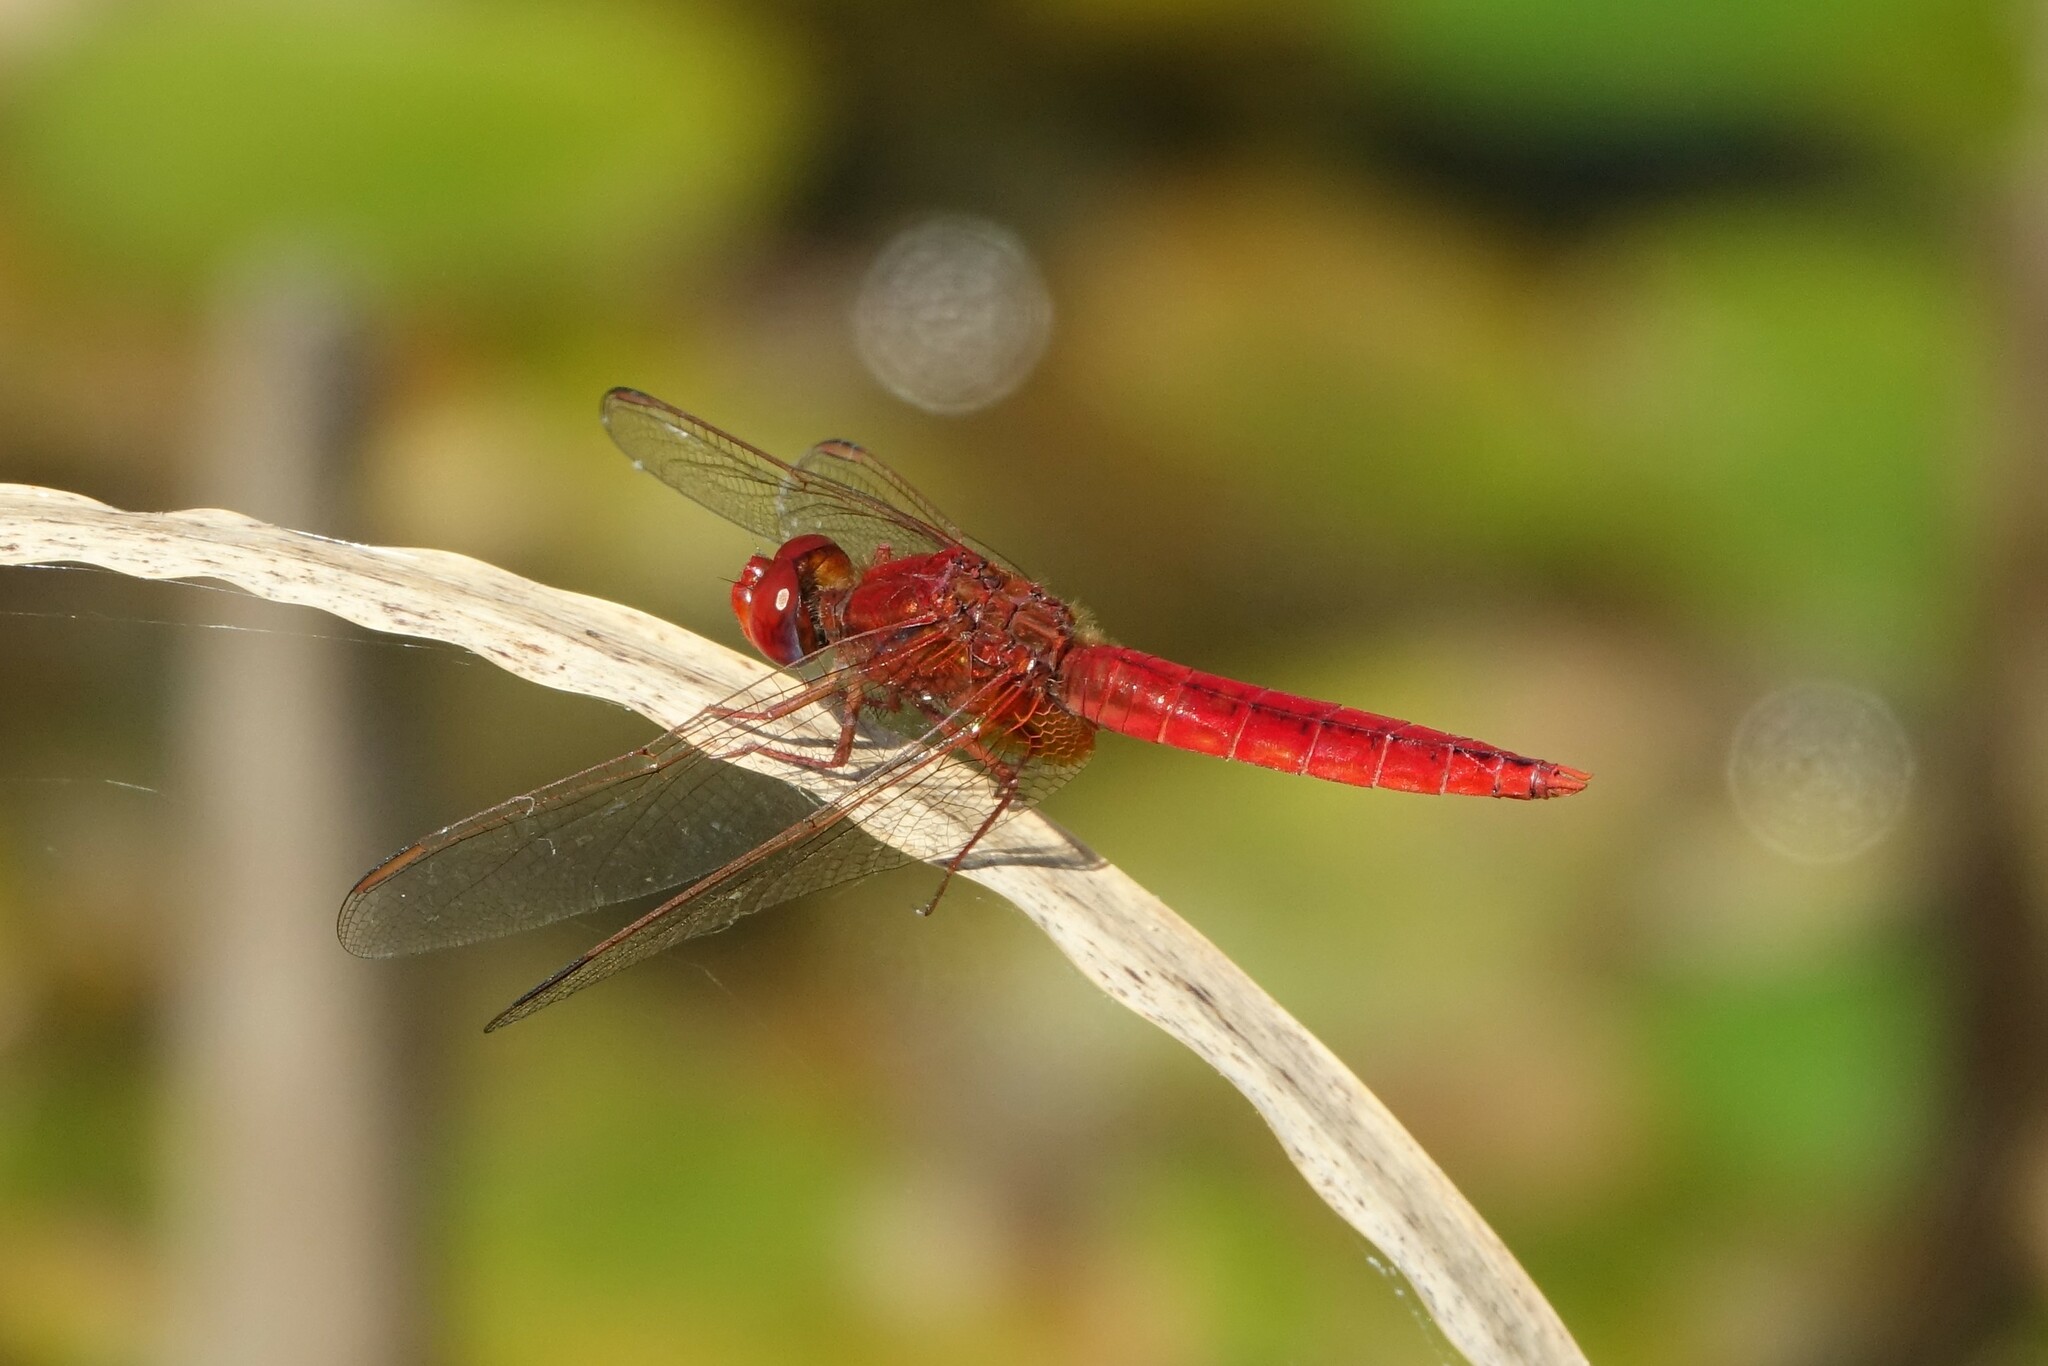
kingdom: Animalia
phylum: Arthropoda
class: Insecta
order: Odonata
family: Libellulidae
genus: Crocothemis
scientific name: Crocothemis erythraea
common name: Scarlet dragonfly
